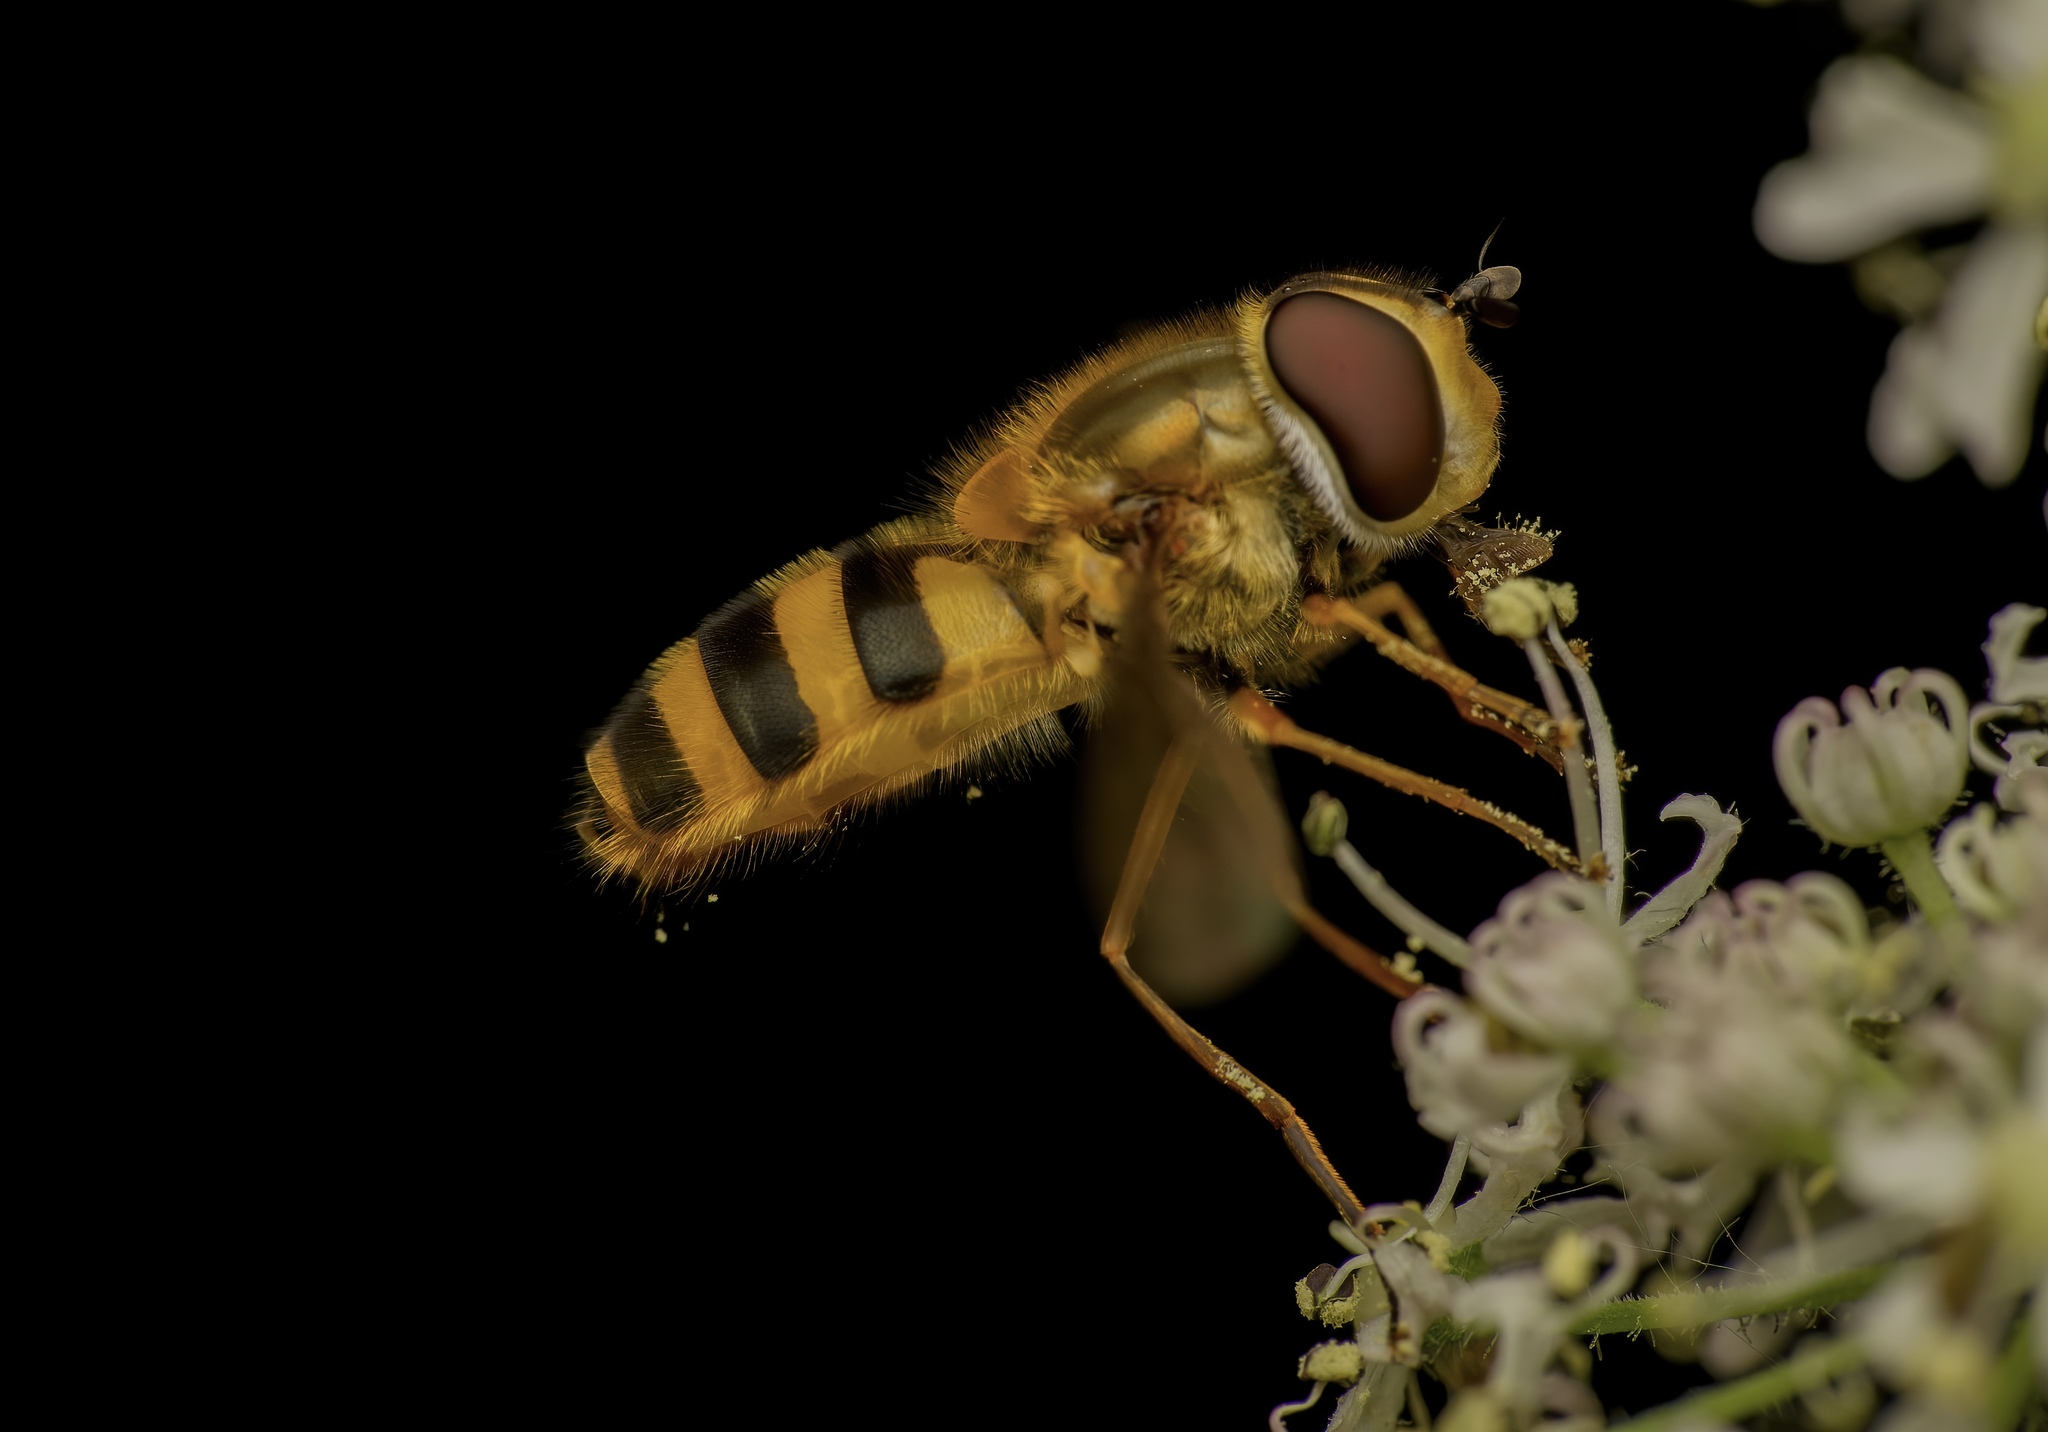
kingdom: Animalia
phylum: Arthropoda
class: Insecta
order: Diptera
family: Syrphidae
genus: Epistrophe
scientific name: Epistrophe grossulariae
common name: Black-horned smoothtail
